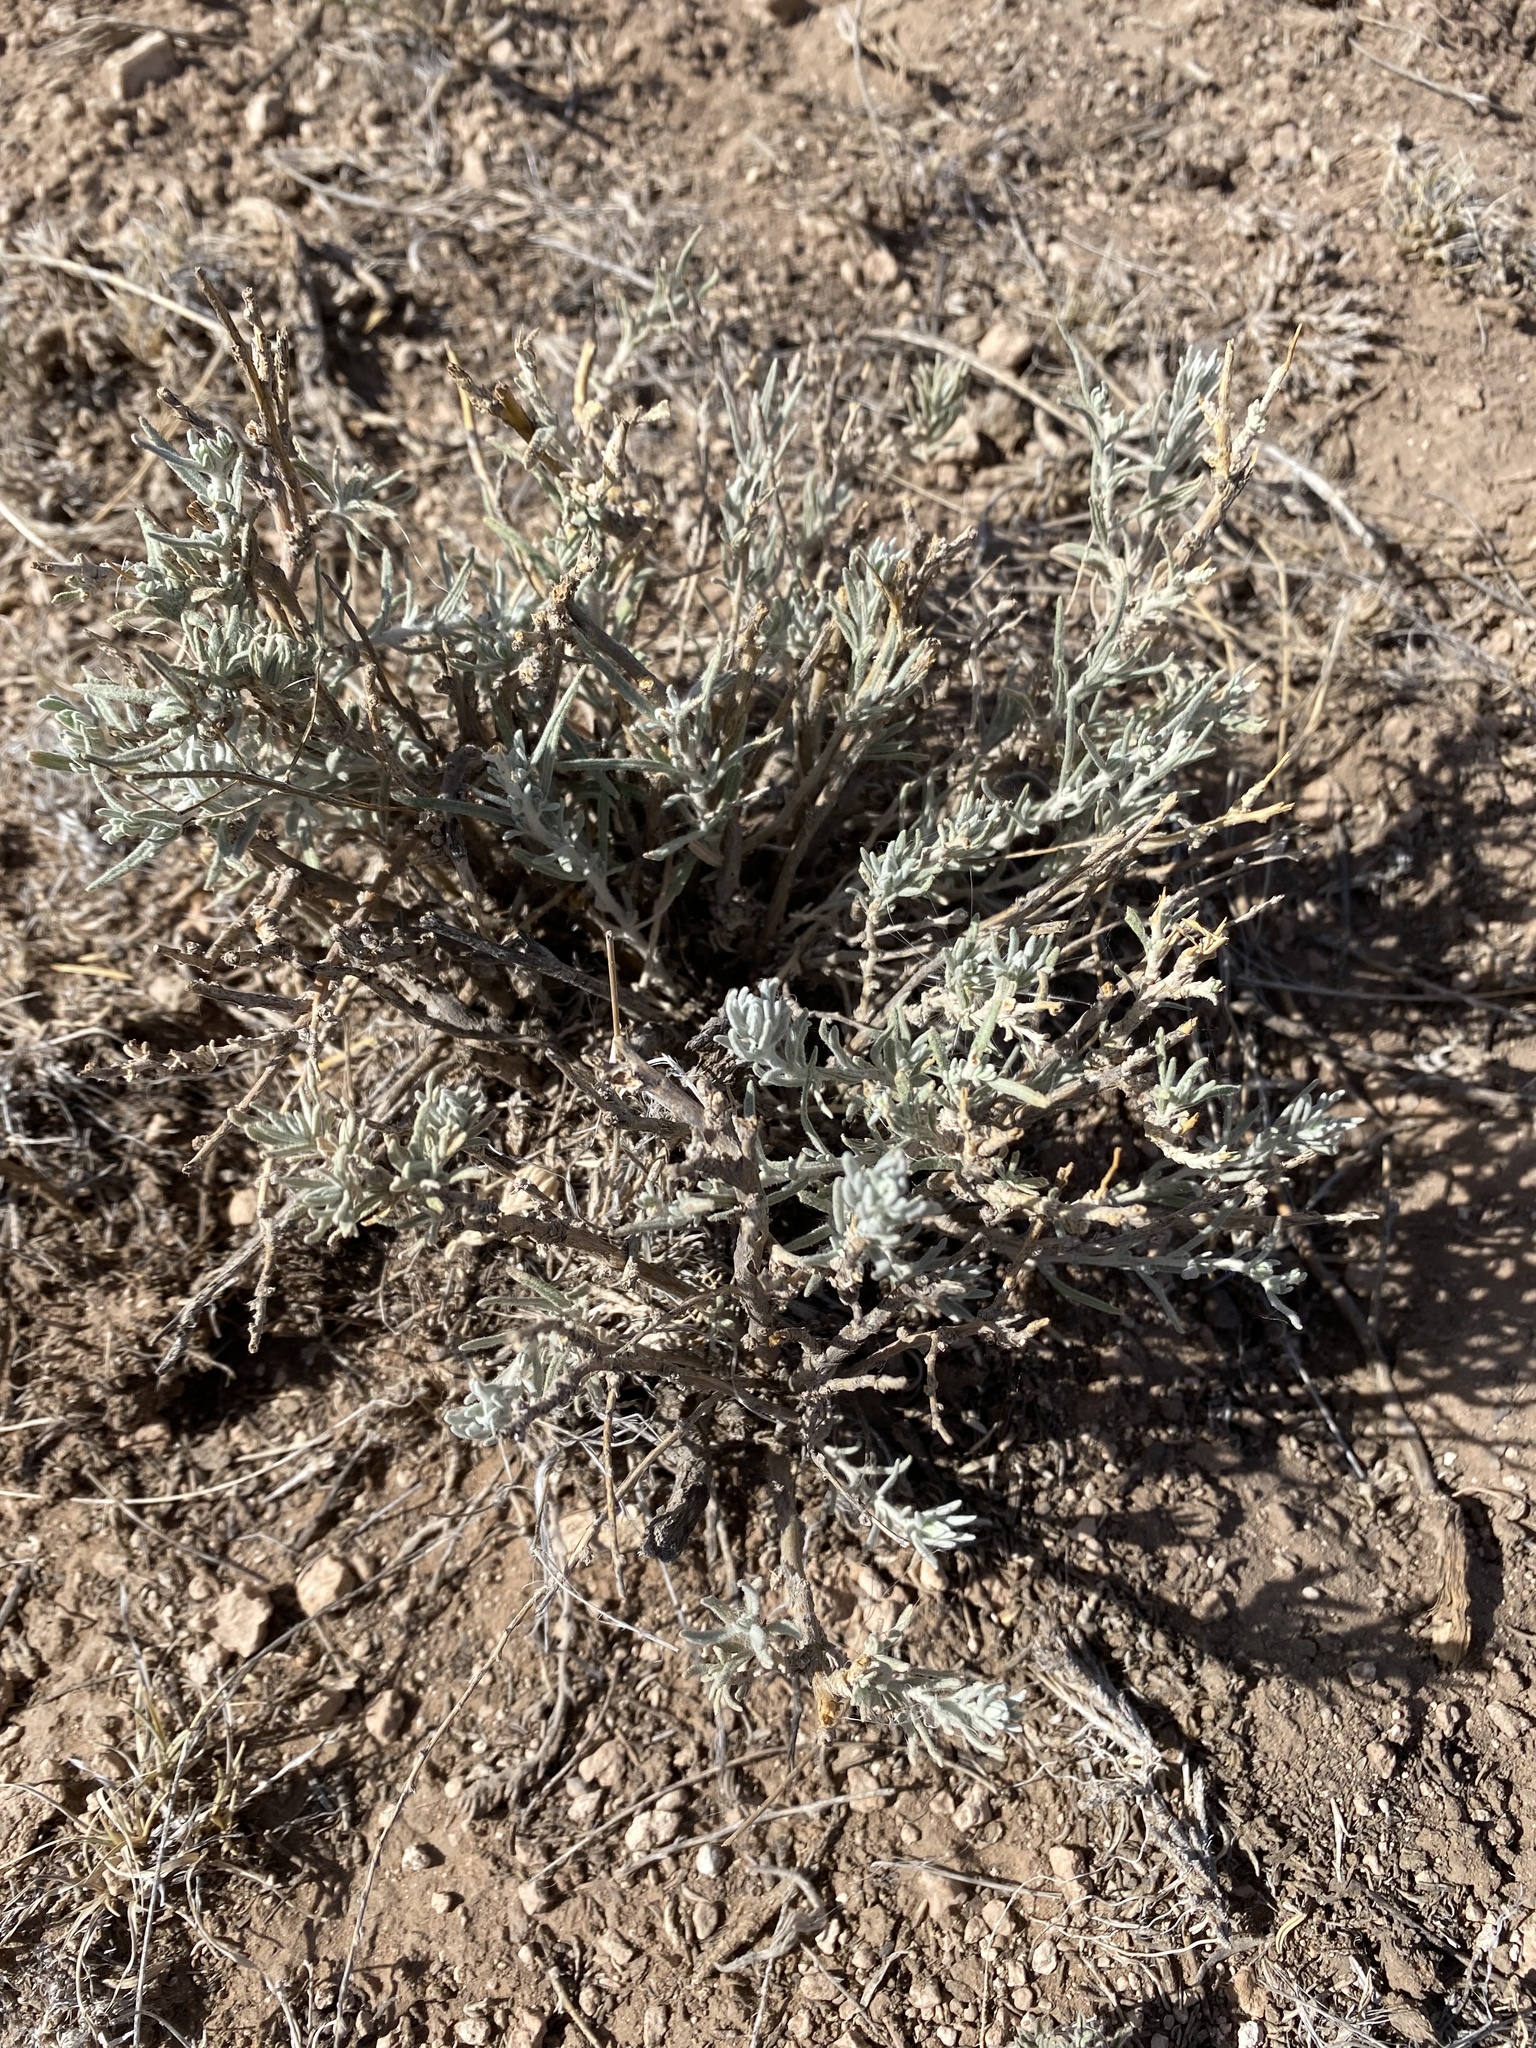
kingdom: Plantae
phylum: Tracheophyta
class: Magnoliopsida
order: Caryophyllales
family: Amaranthaceae
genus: Krascheninnikovia
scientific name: Krascheninnikovia lanata
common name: Winterfat
